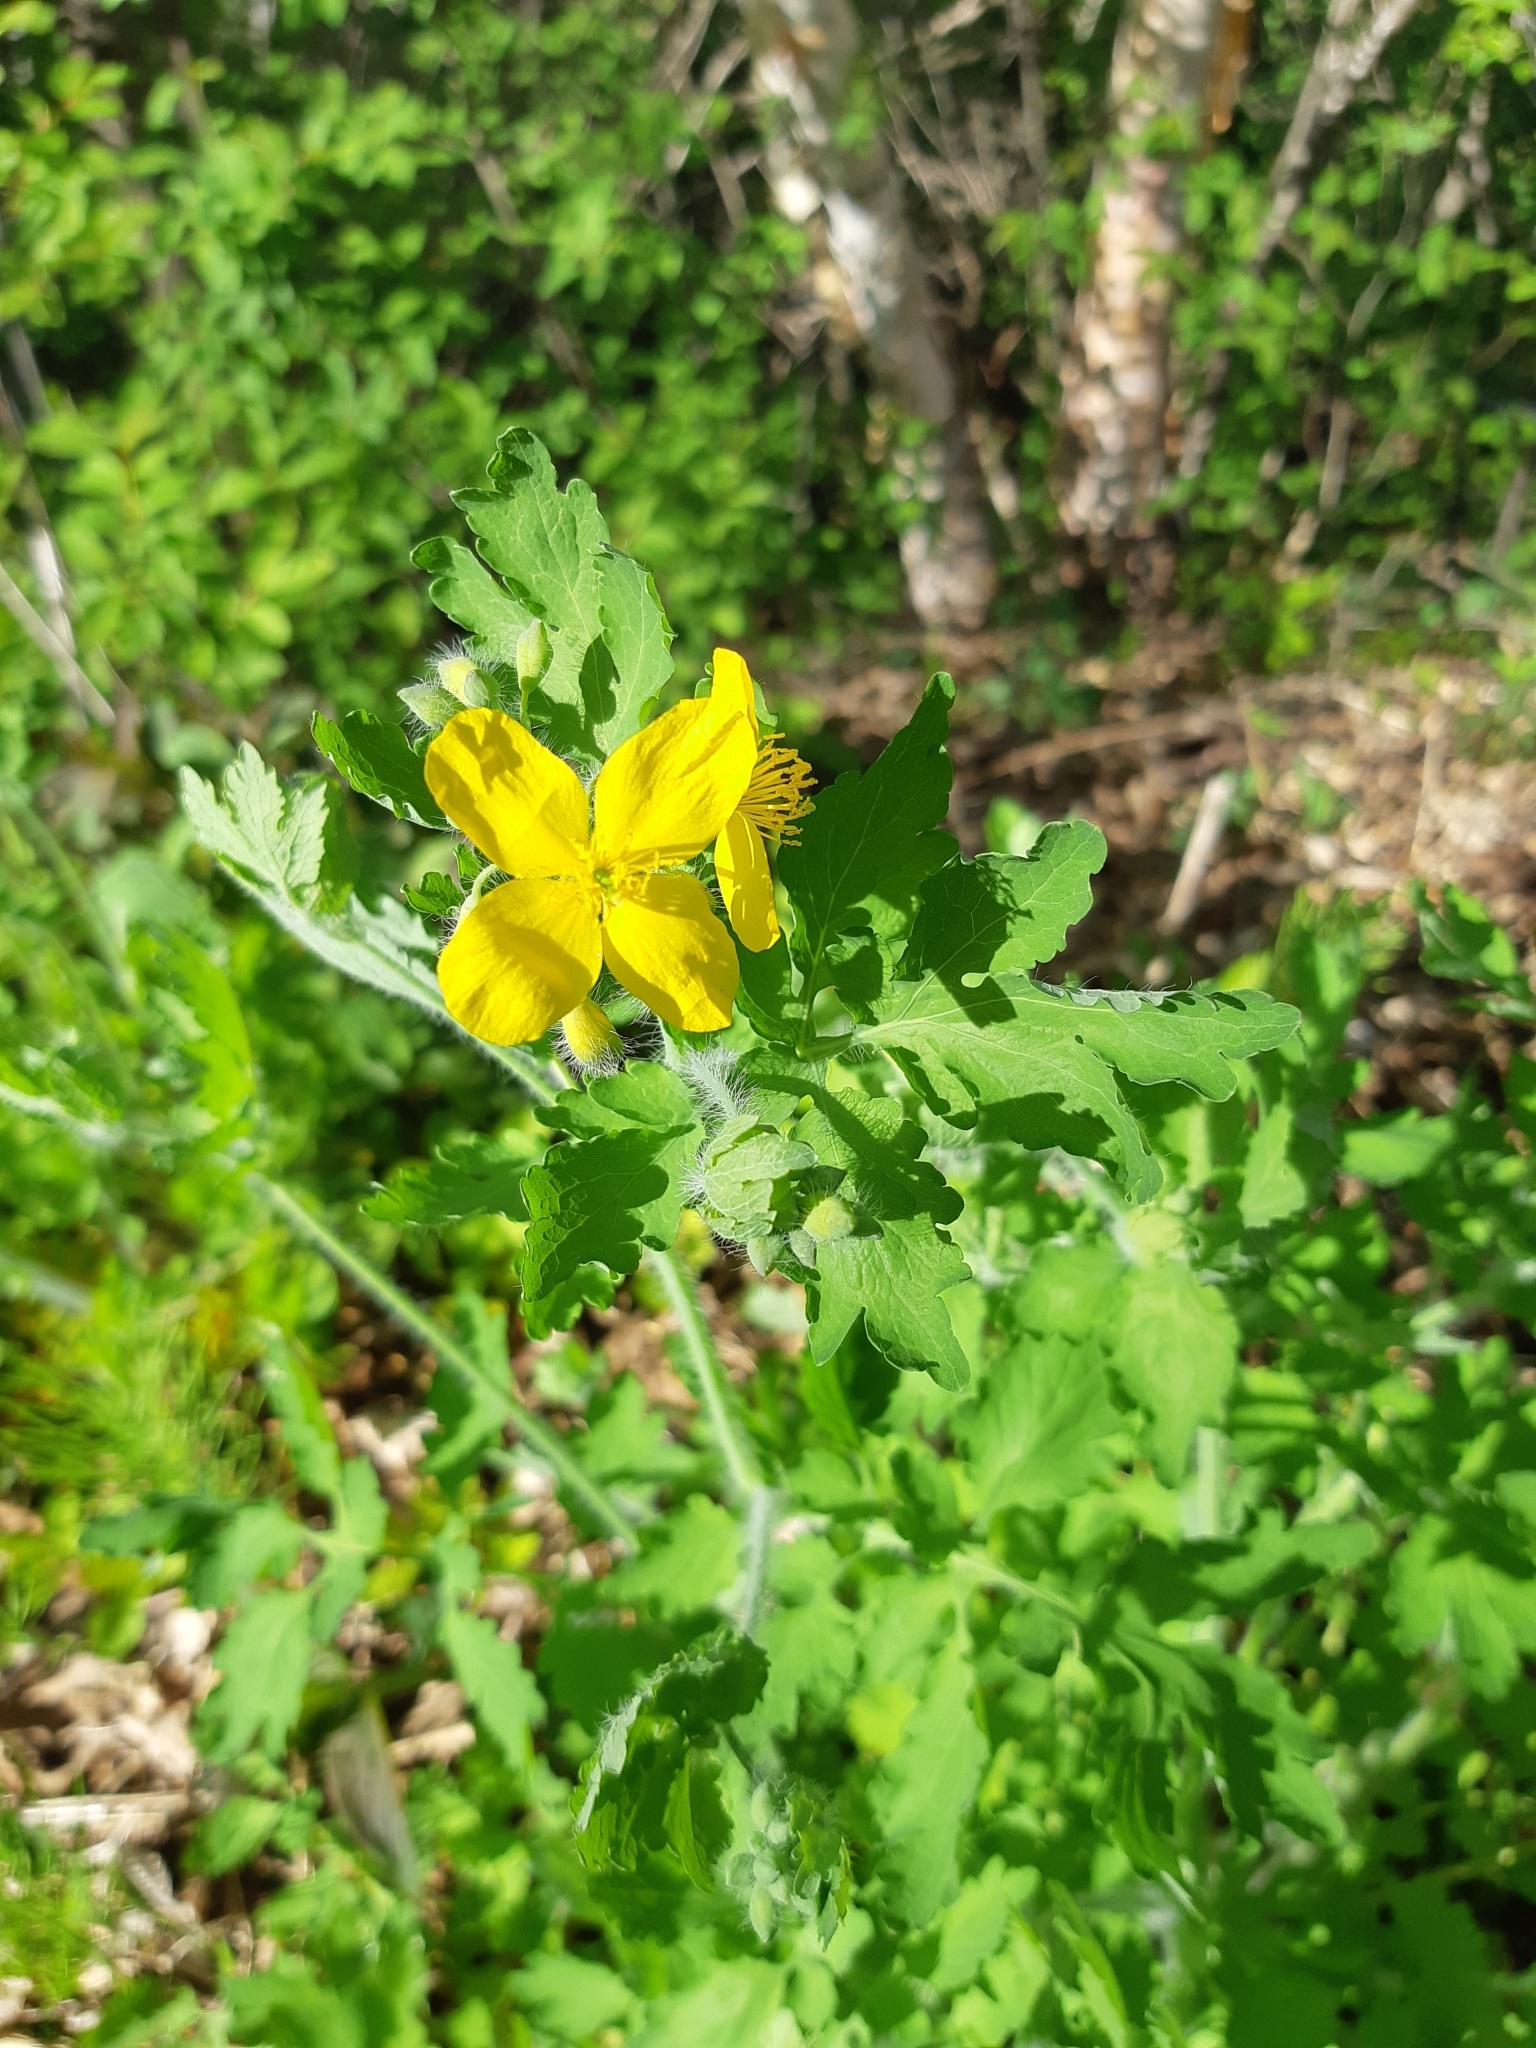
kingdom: Plantae
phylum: Tracheophyta
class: Magnoliopsida
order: Ranunculales
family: Papaveraceae
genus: Chelidonium
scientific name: Chelidonium majus
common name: Greater celandine
